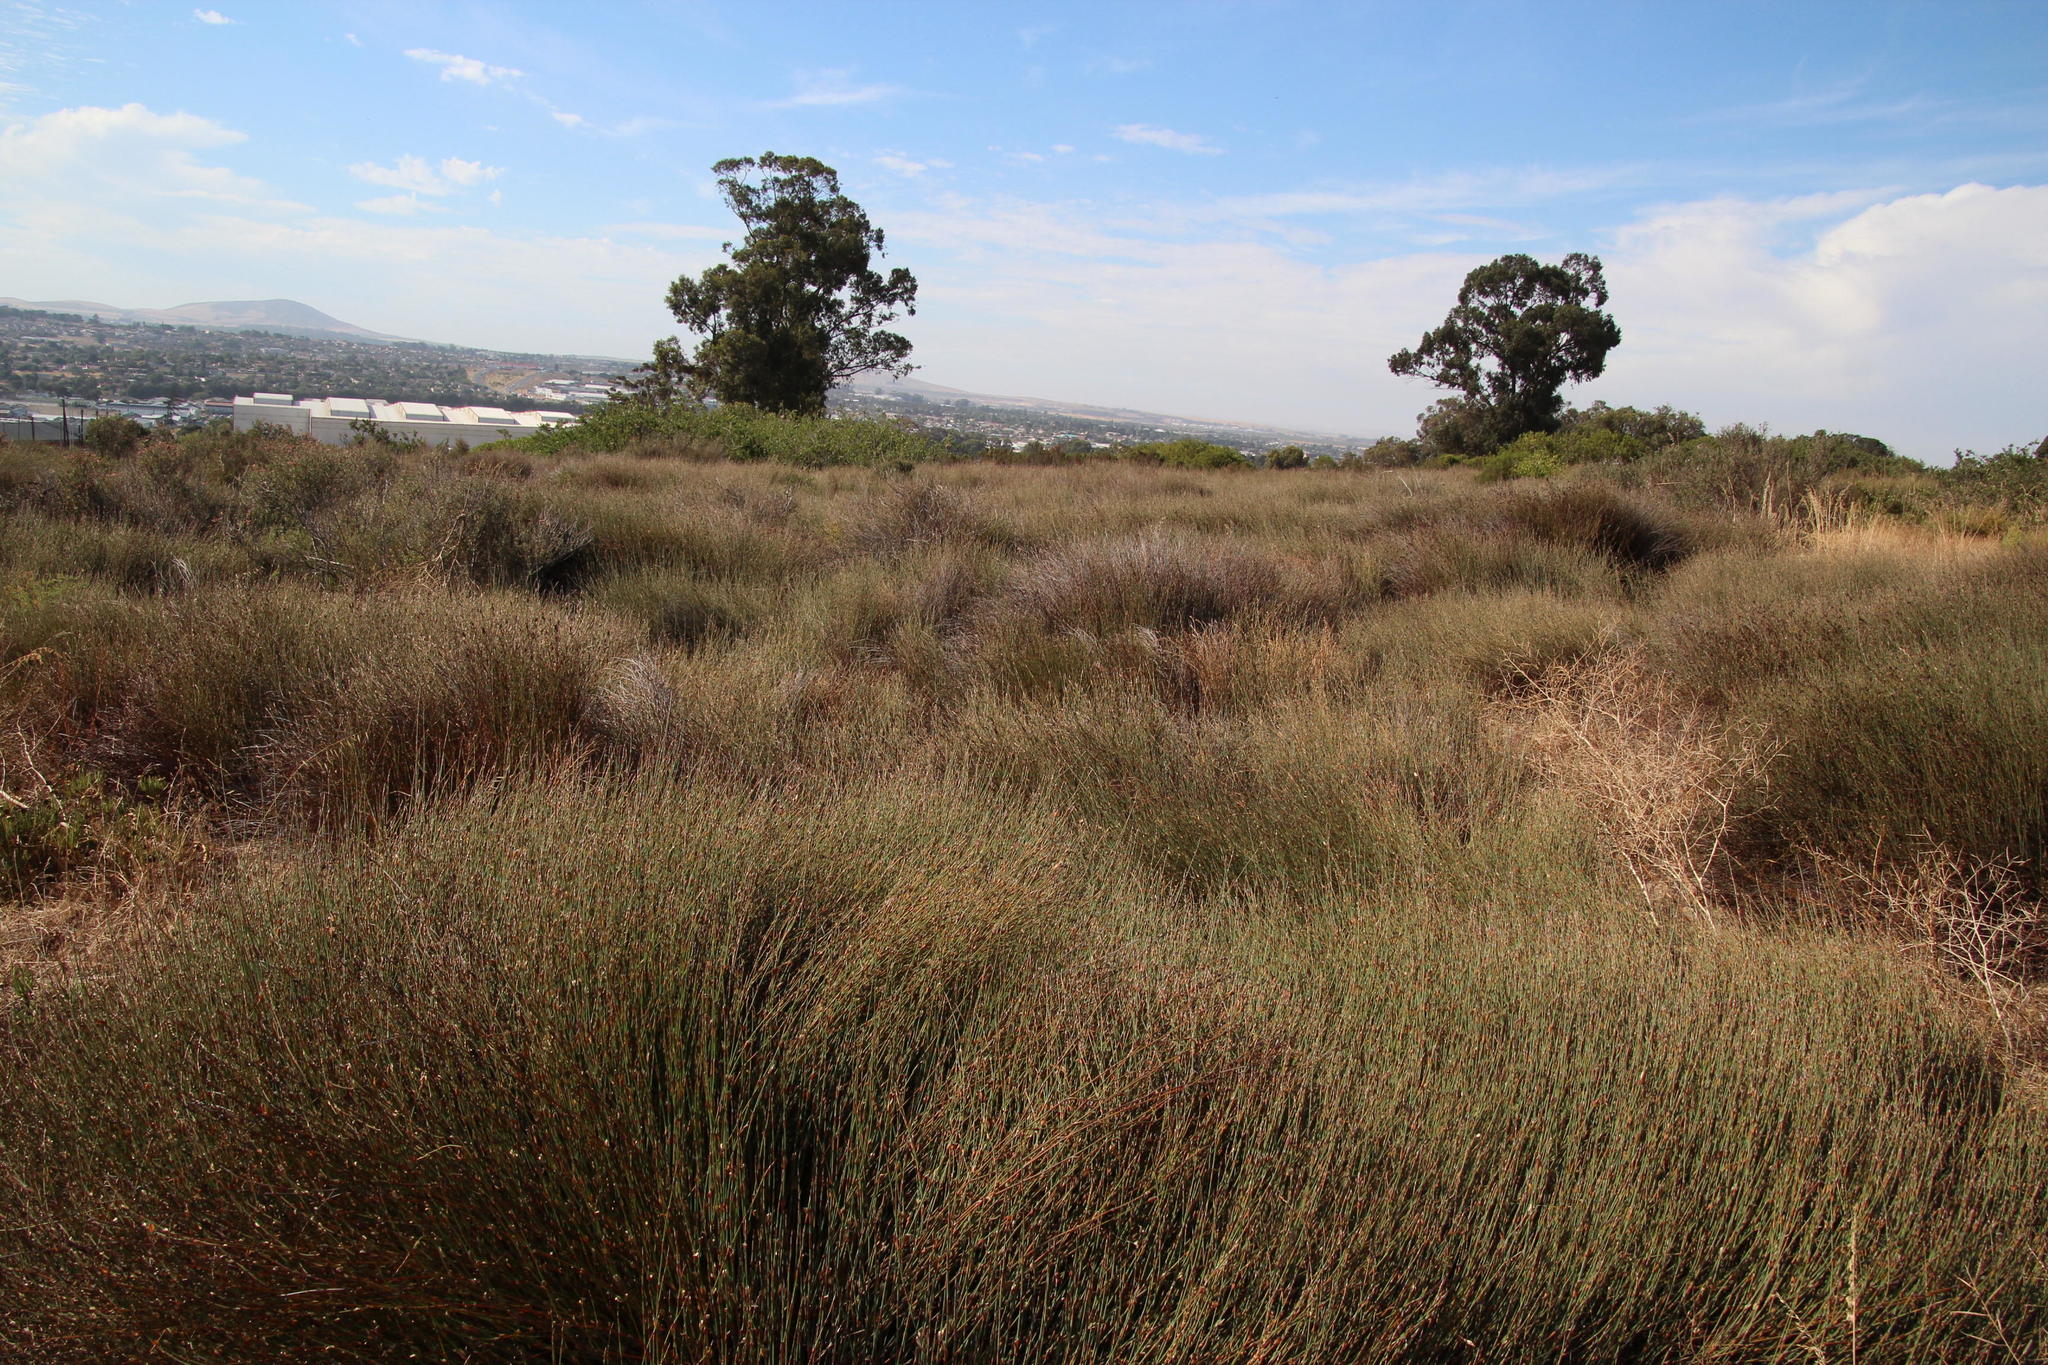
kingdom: Plantae
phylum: Tracheophyta
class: Liliopsida
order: Poales
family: Restionaceae
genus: Willdenowia
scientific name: Willdenowia incurvata
